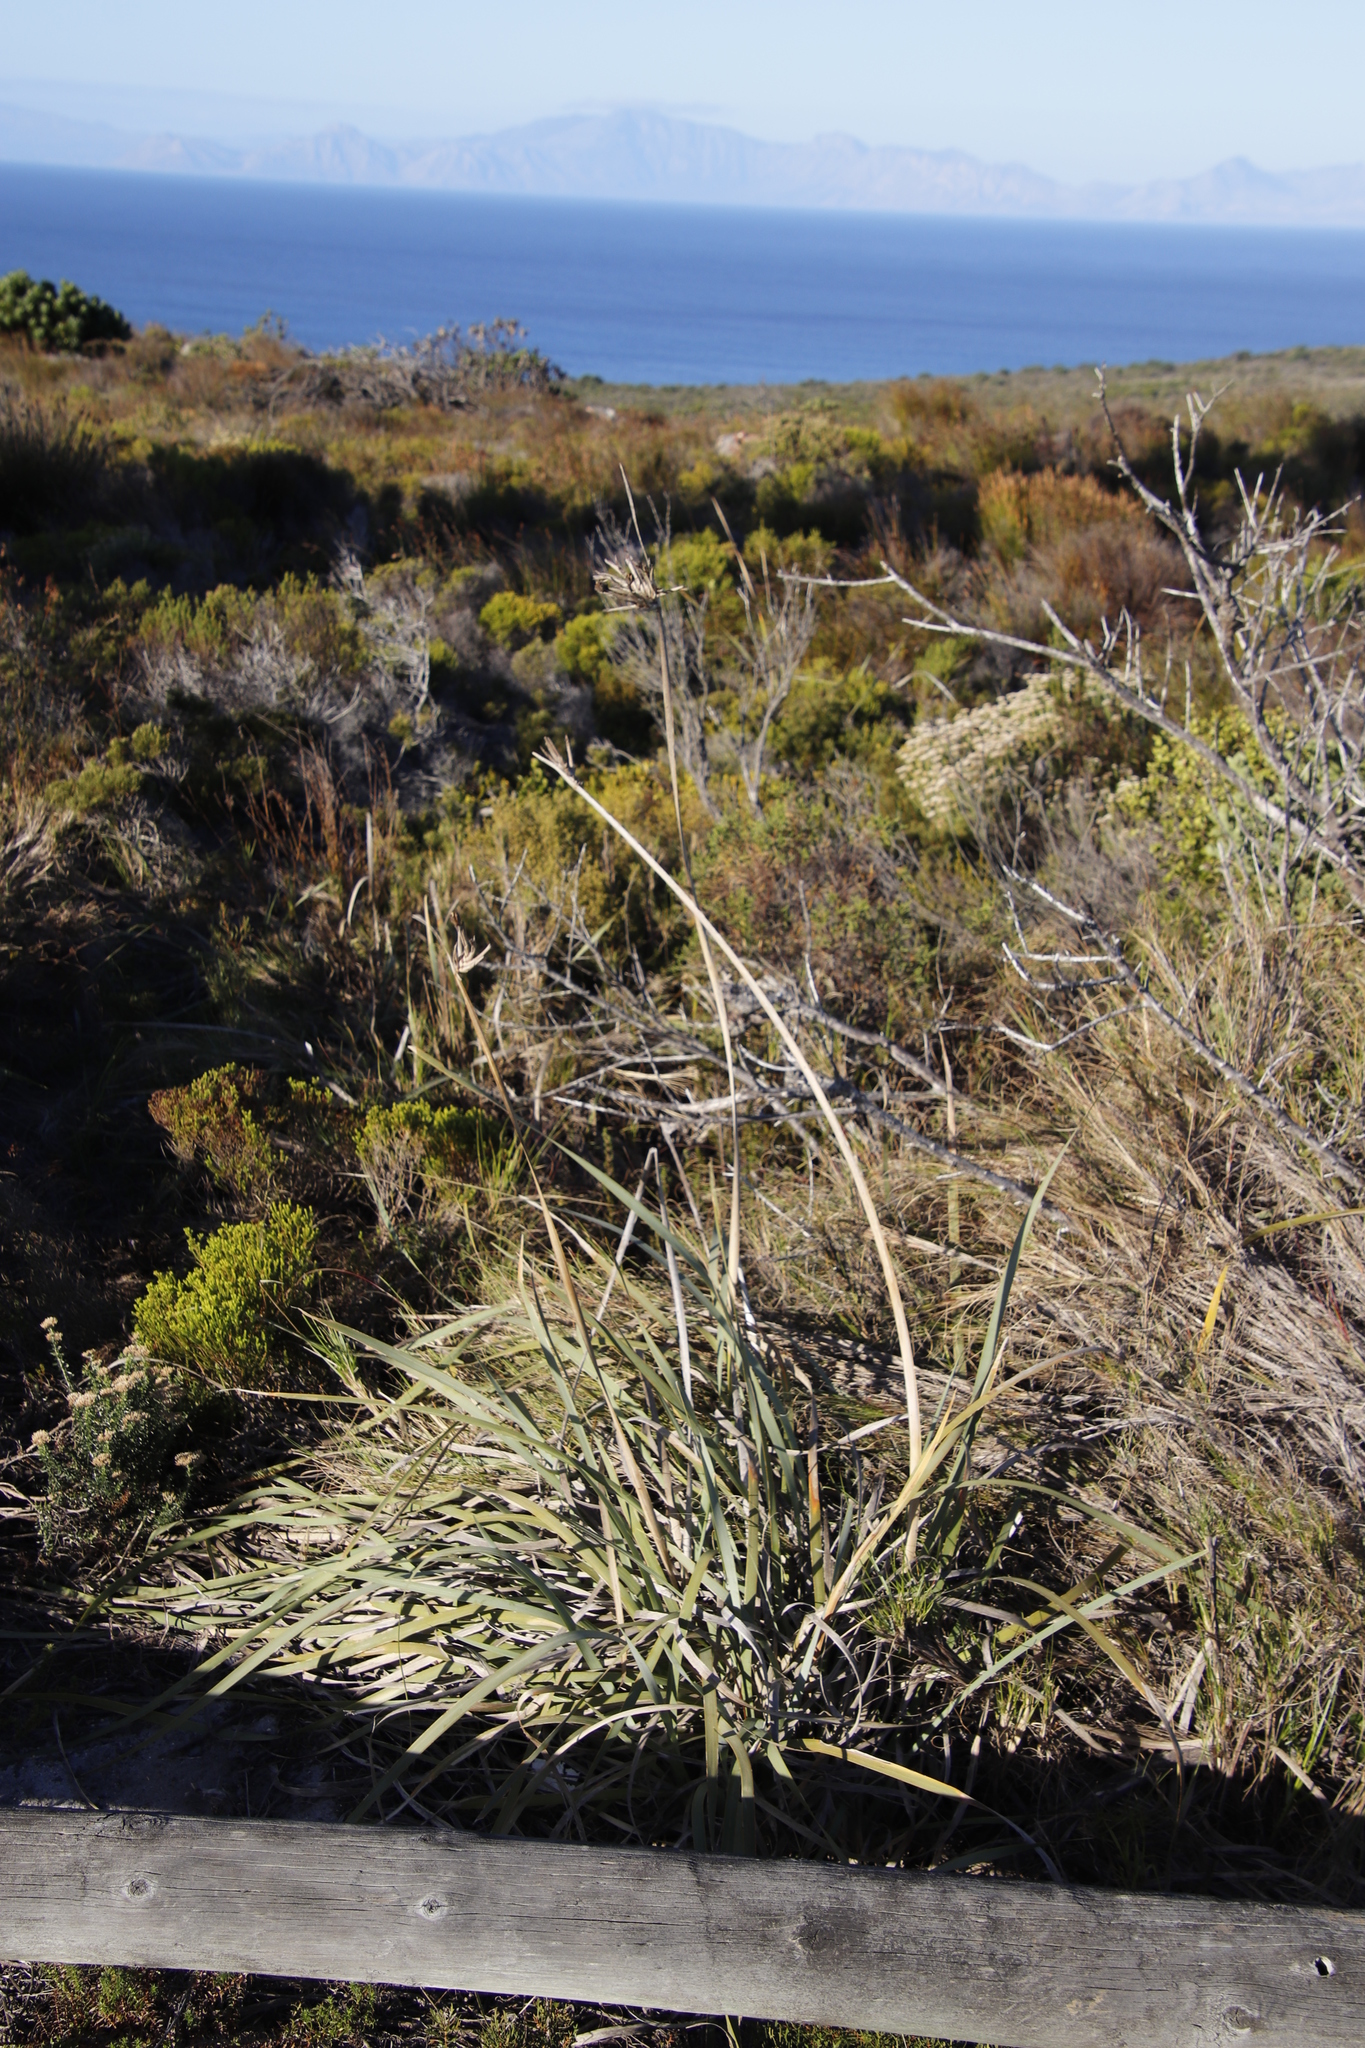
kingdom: Plantae
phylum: Tracheophyta
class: Liliopsida
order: Asparagales
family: Iridaceae
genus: Bobartia
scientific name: Bobartia gladiata
